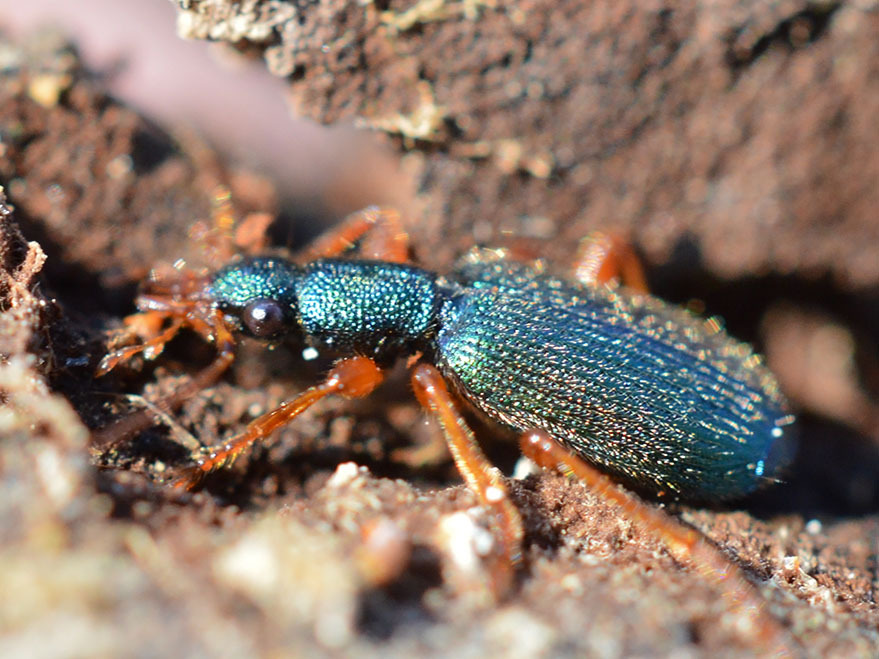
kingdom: Animalia
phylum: Arthropoda
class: Insecta
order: Coleoptera
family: Carabidae
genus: Drypta
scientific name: Drypta dentata
